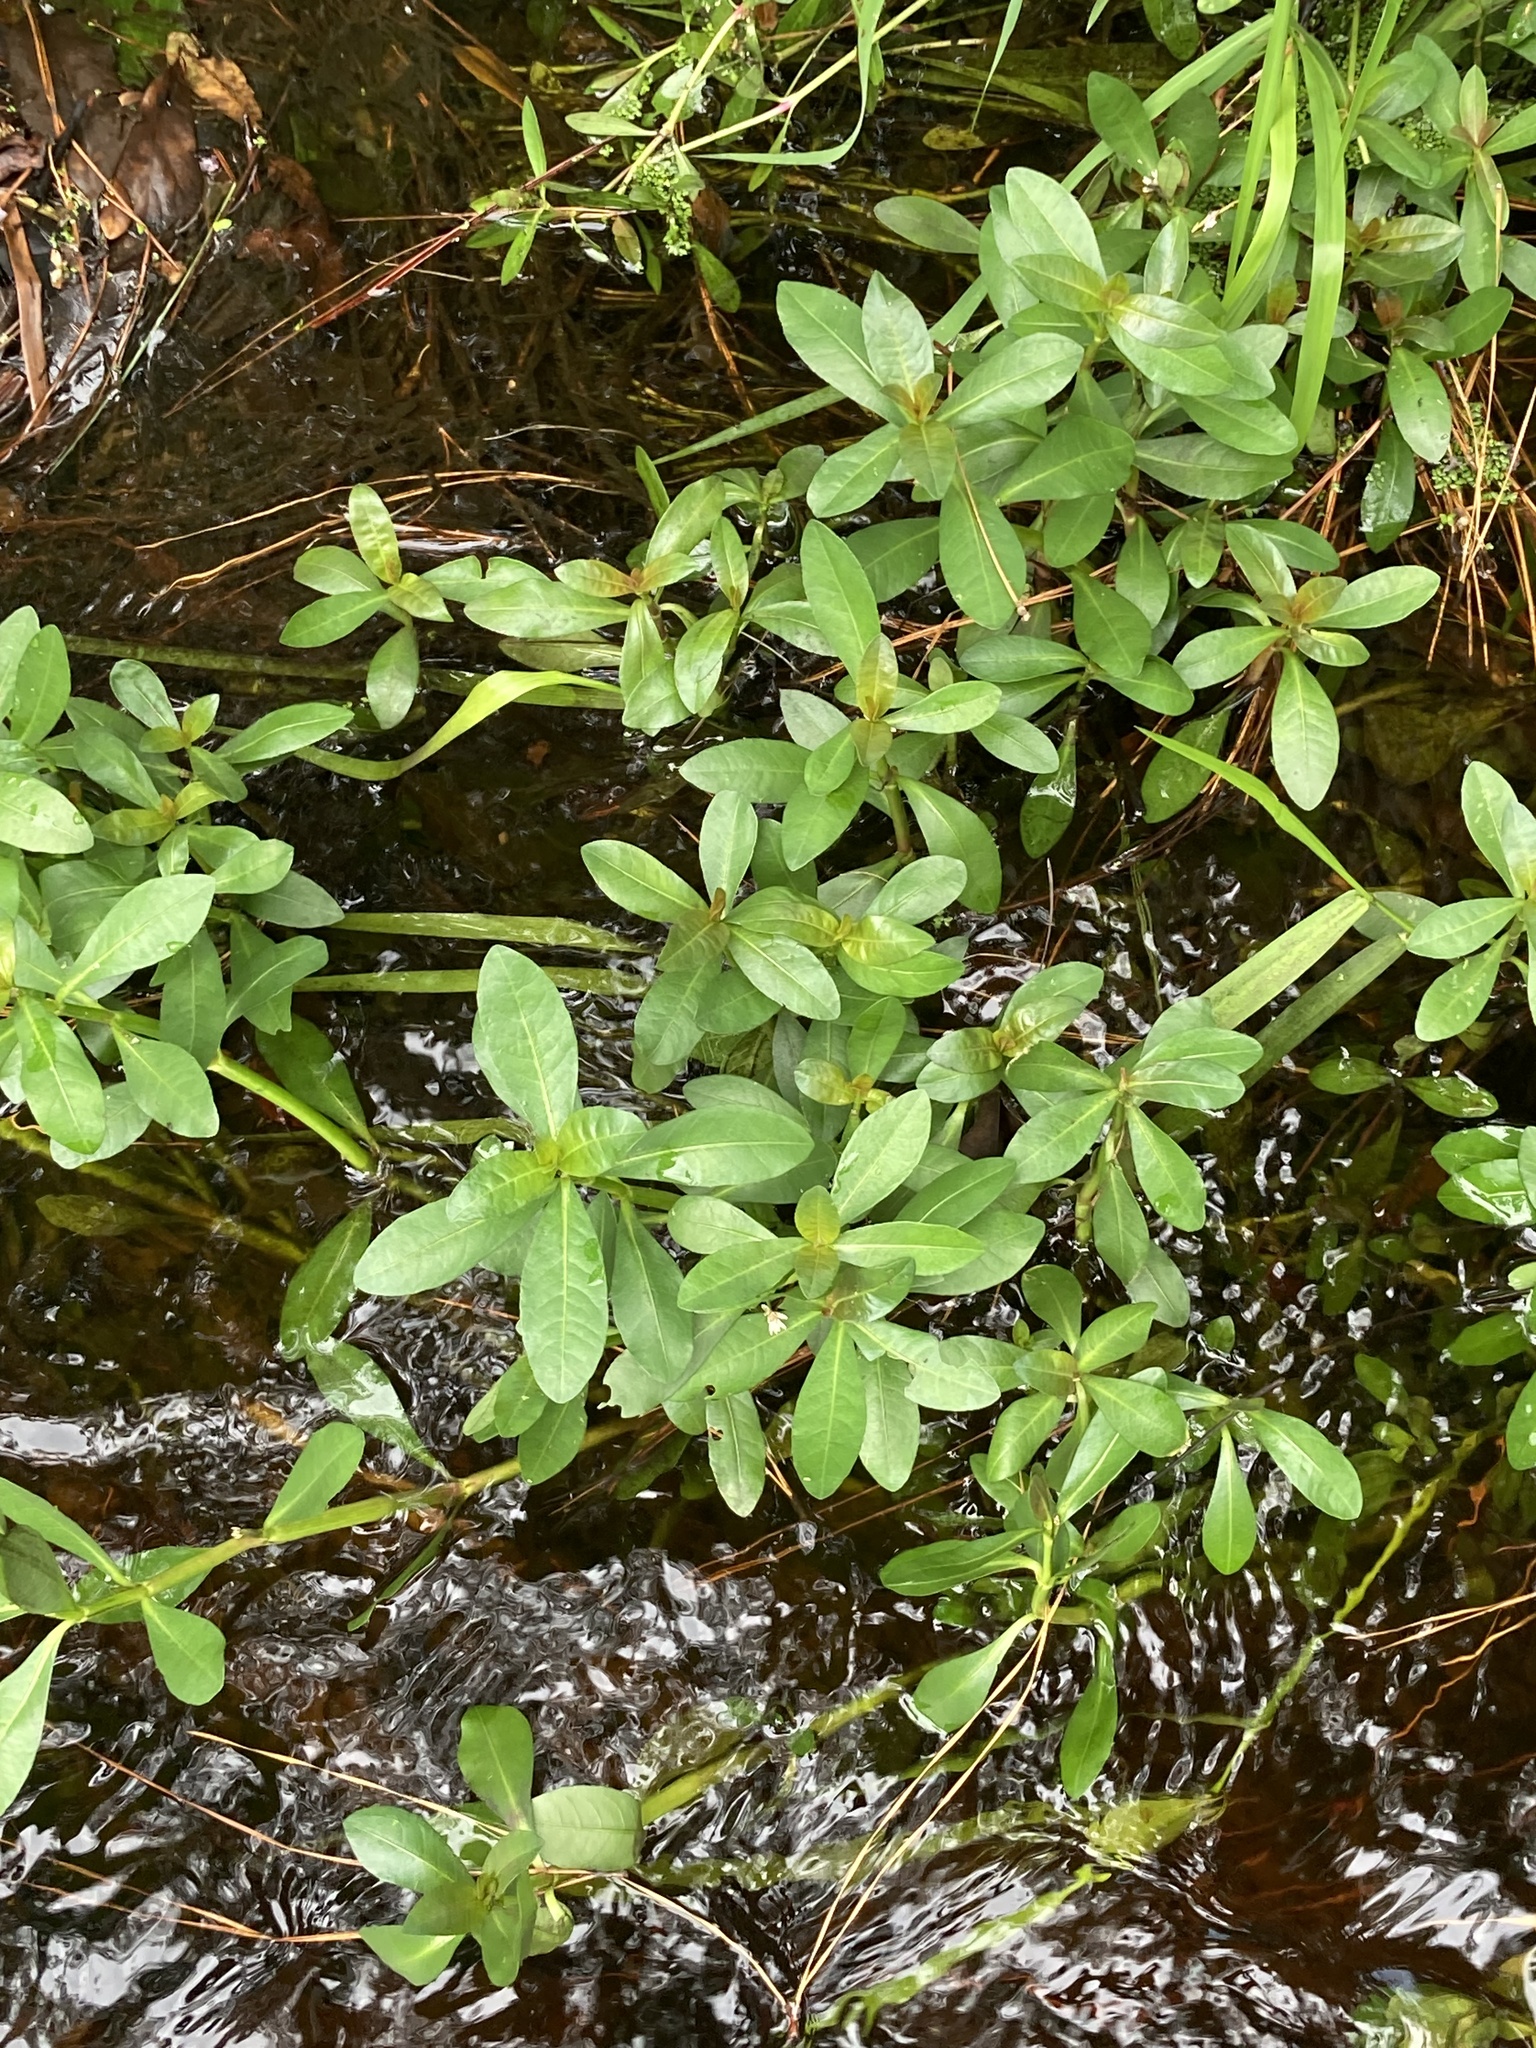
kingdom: Plantae
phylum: Tracheophyta
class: Magnoliopsida
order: Caryophyllales
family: Amaranthaceae
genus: Alternanthera
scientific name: Alternanthera philoxeroides
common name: Alligatorweed
